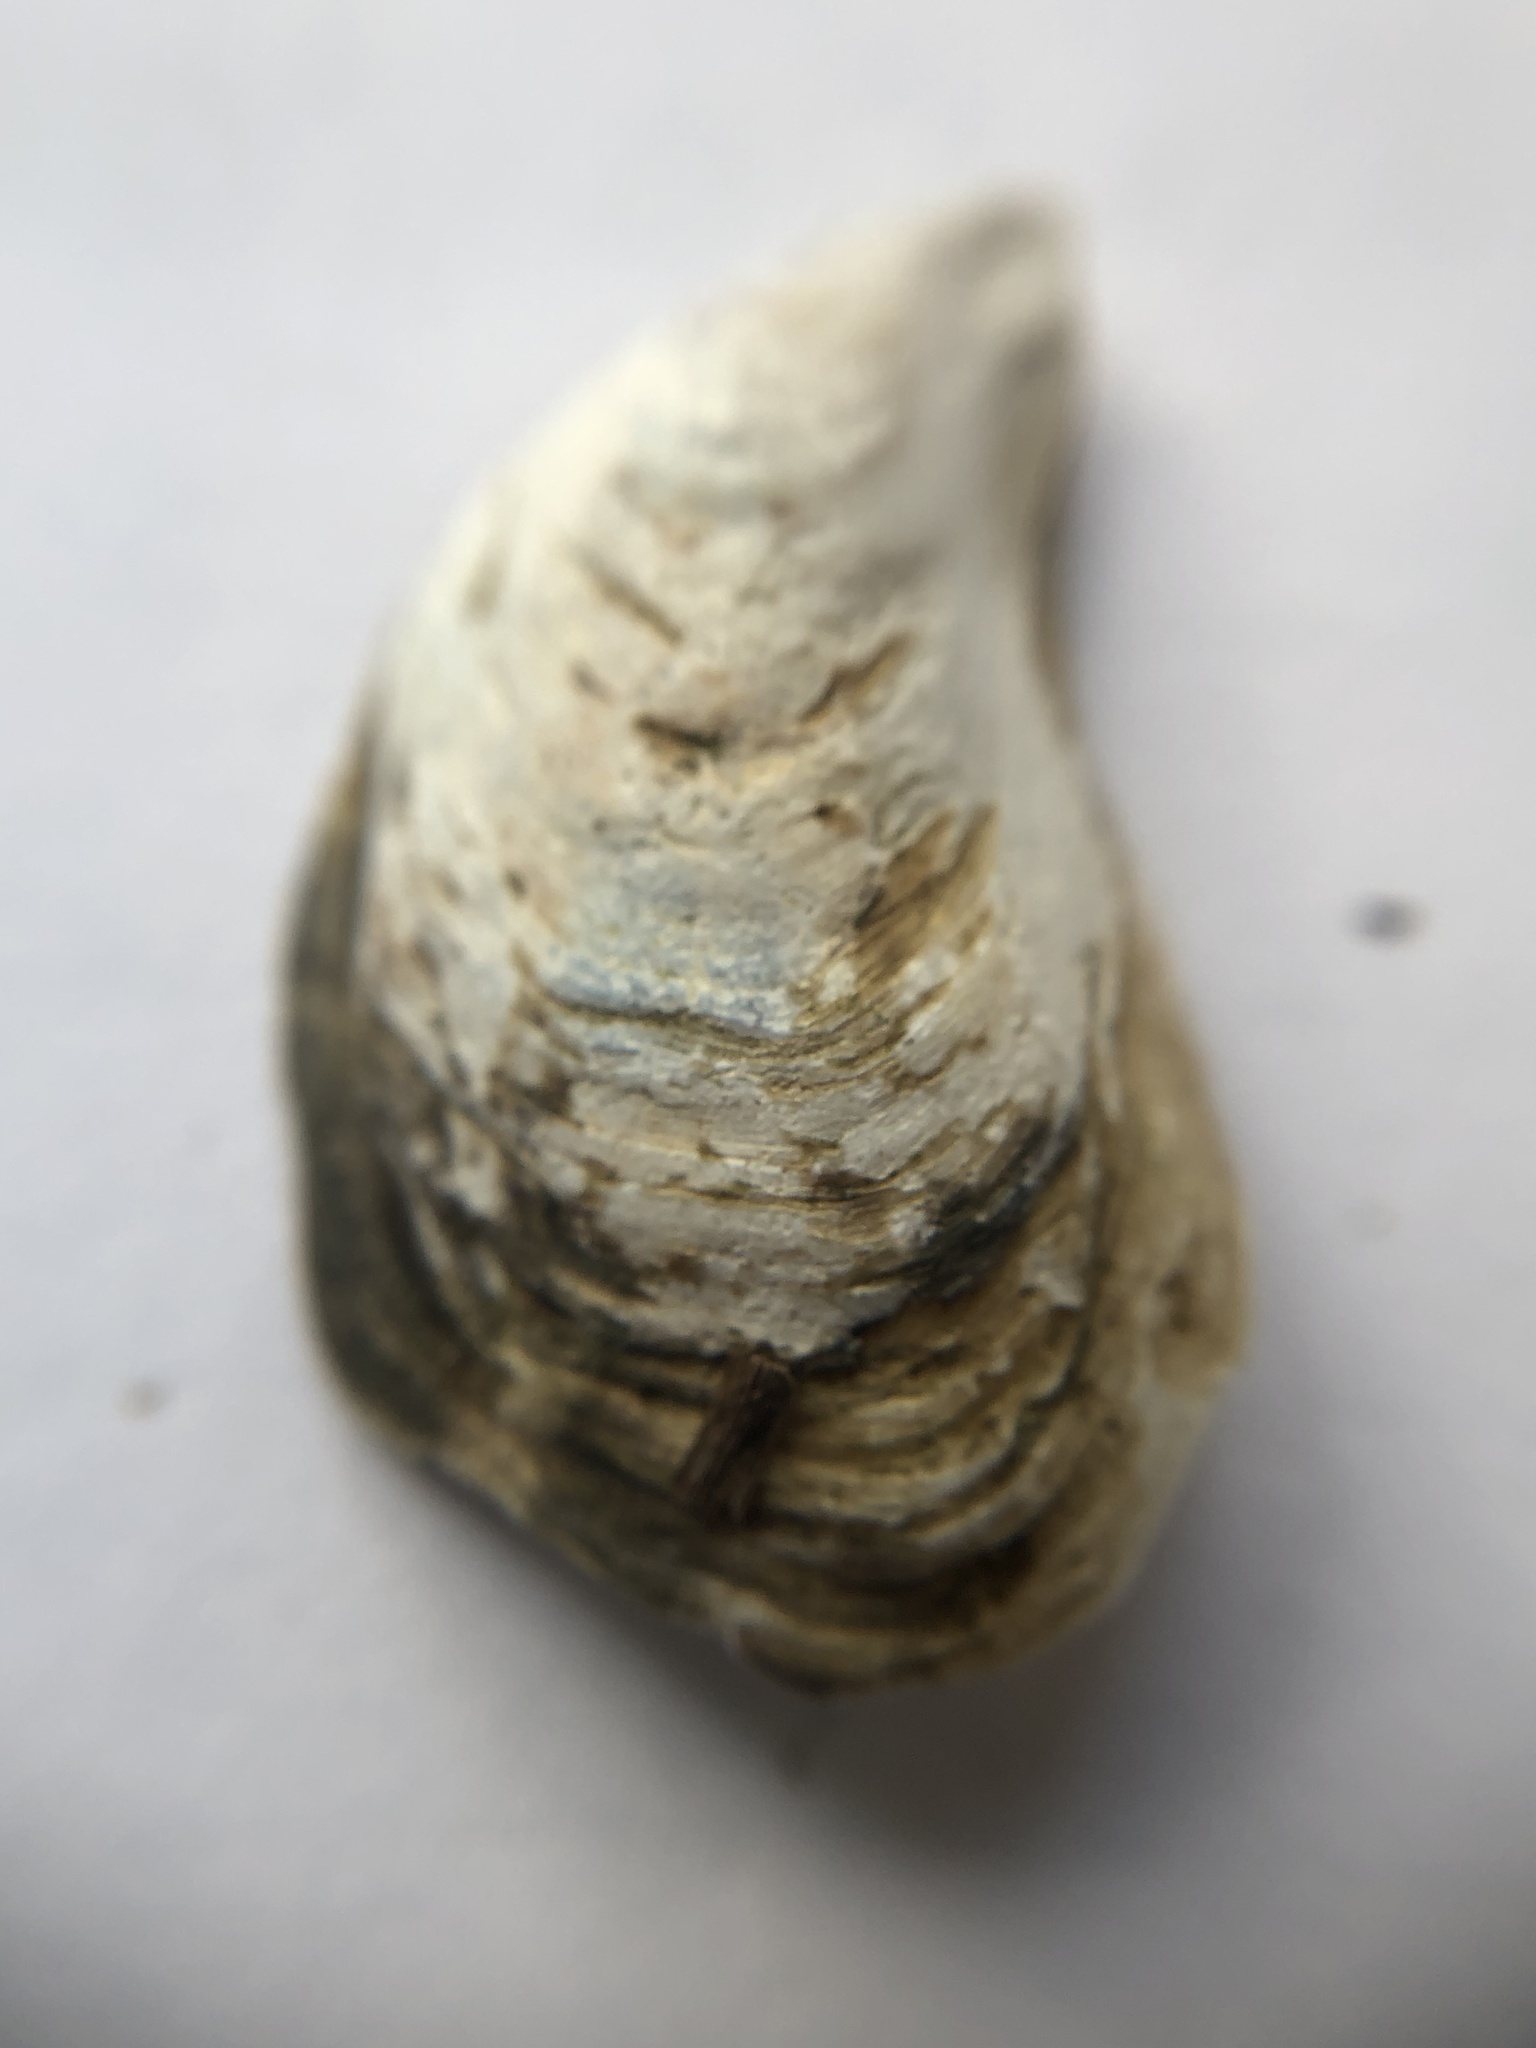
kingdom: Animalia
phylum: Mollusca
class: Bivalvia
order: Myida
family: Dreissenidae
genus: Dreissena
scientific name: Dreissena bugensis
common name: Quagga mussel
